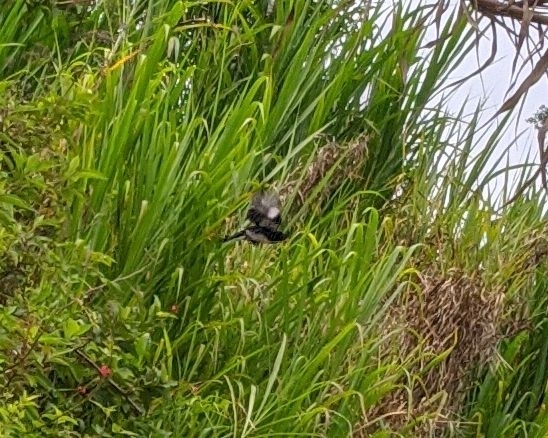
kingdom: Animalia
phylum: Chordata
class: Aves
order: Passeriformes
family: Thraupidae
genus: Sporophila
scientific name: Sporophila luctuosa
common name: Black-and-white seedeater
